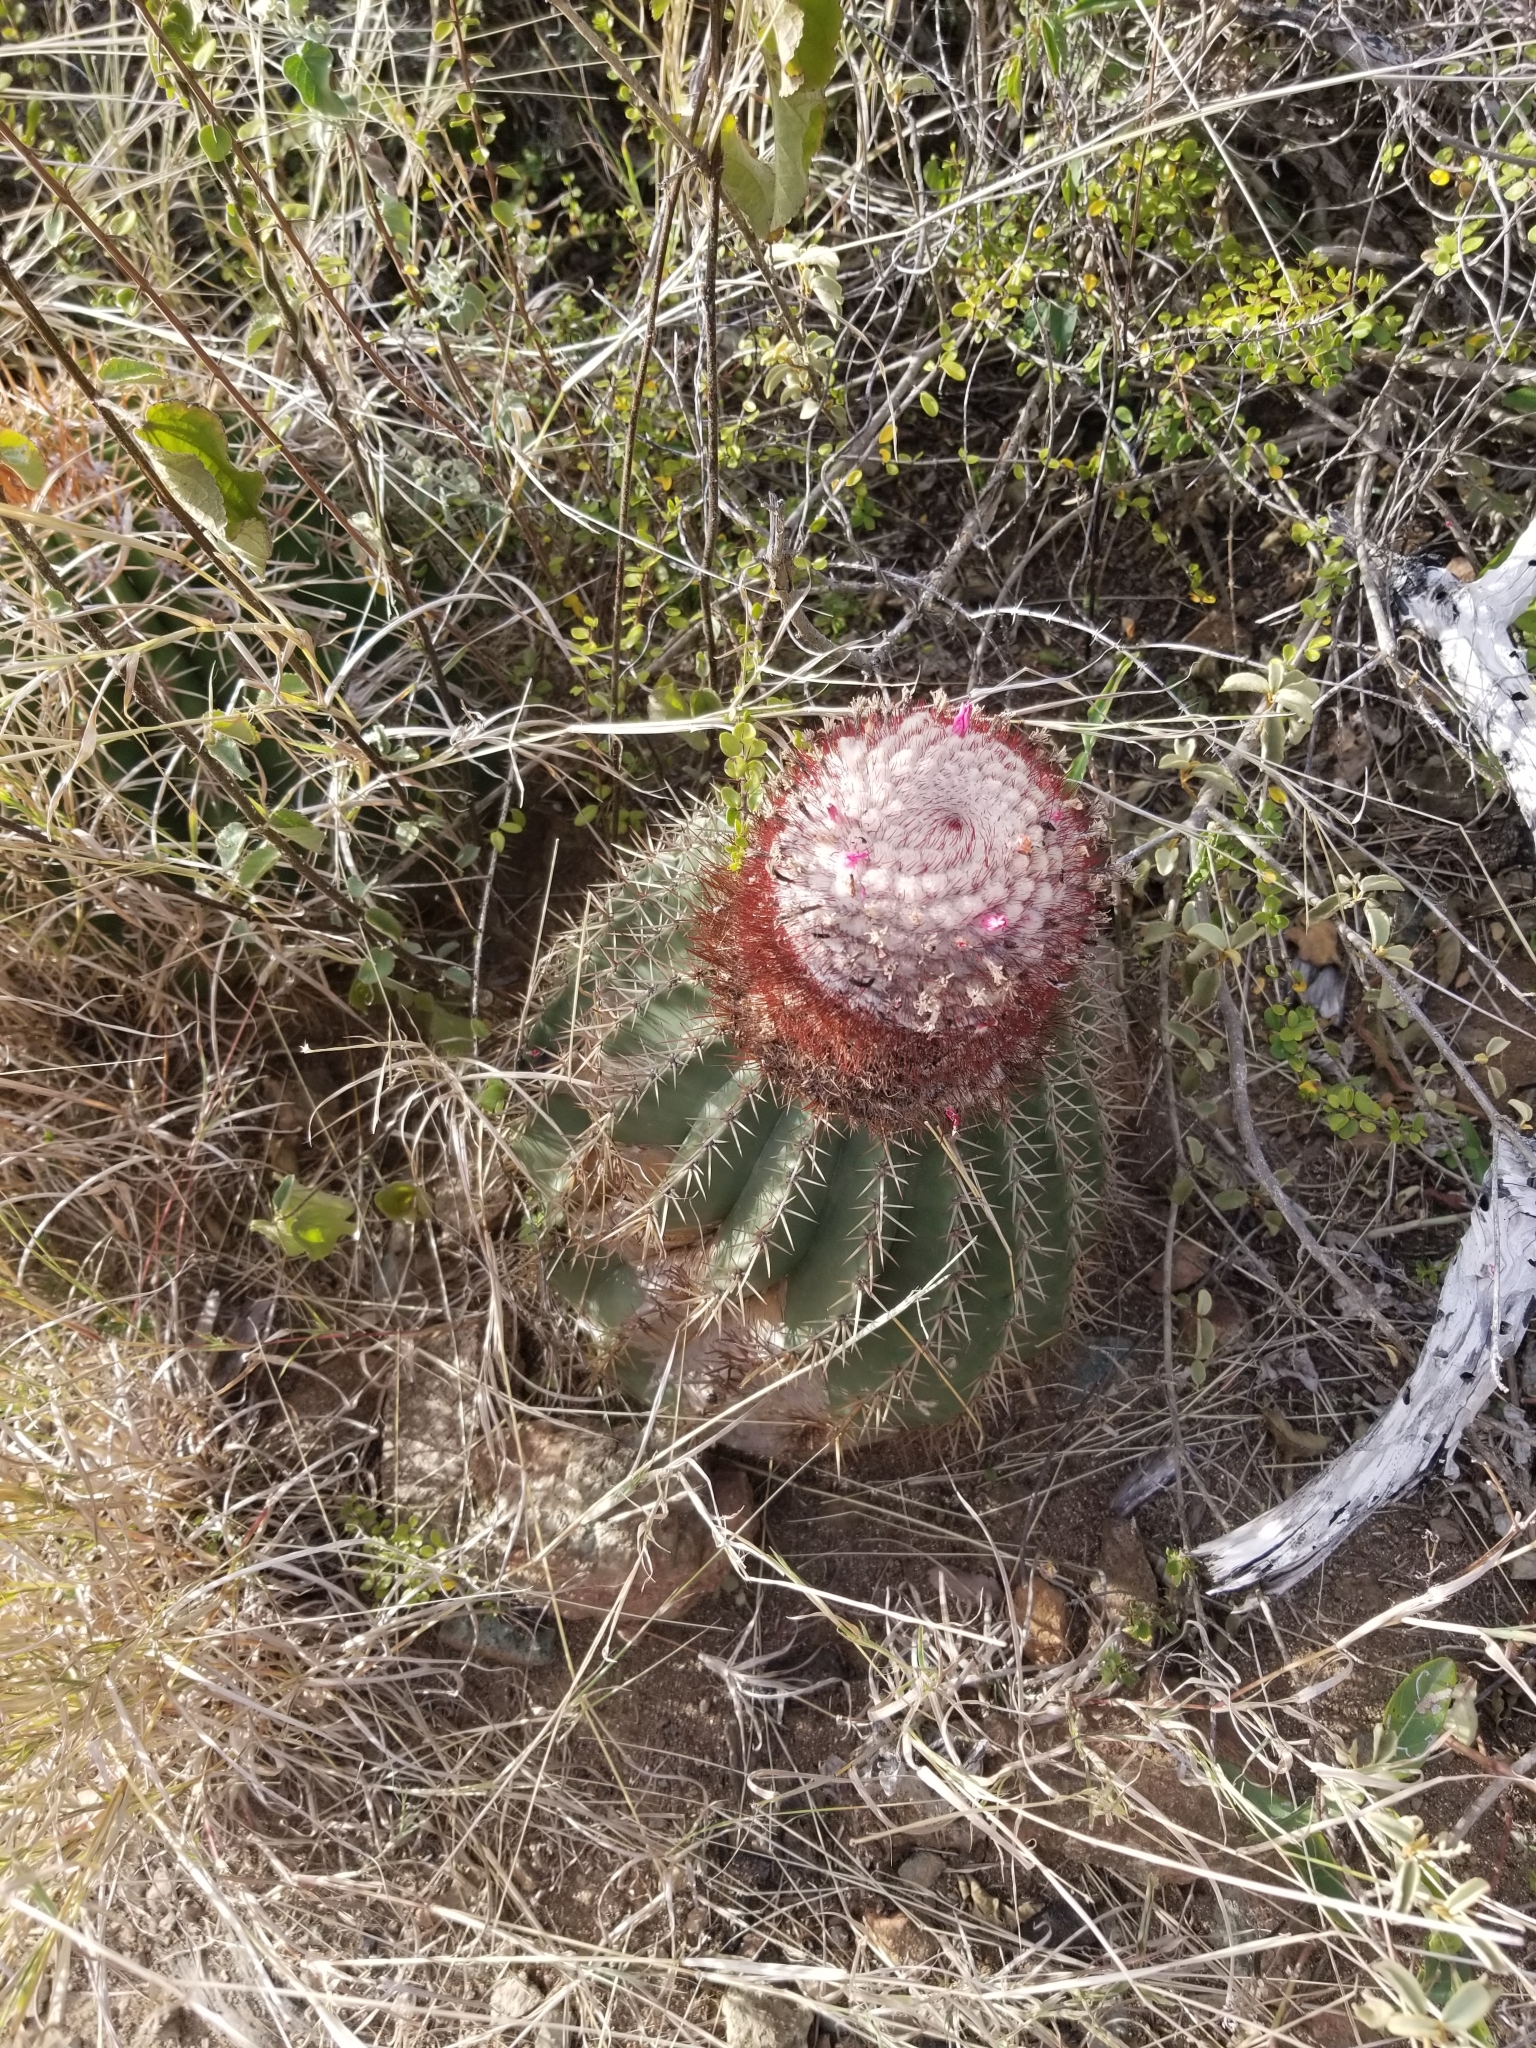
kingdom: Plantae
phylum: Tracheophyta
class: Magnoliopsida
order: Caryophyllales
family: Cactaceae
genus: Melocactus
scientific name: Melocactus intortus
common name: Barrel cactus
